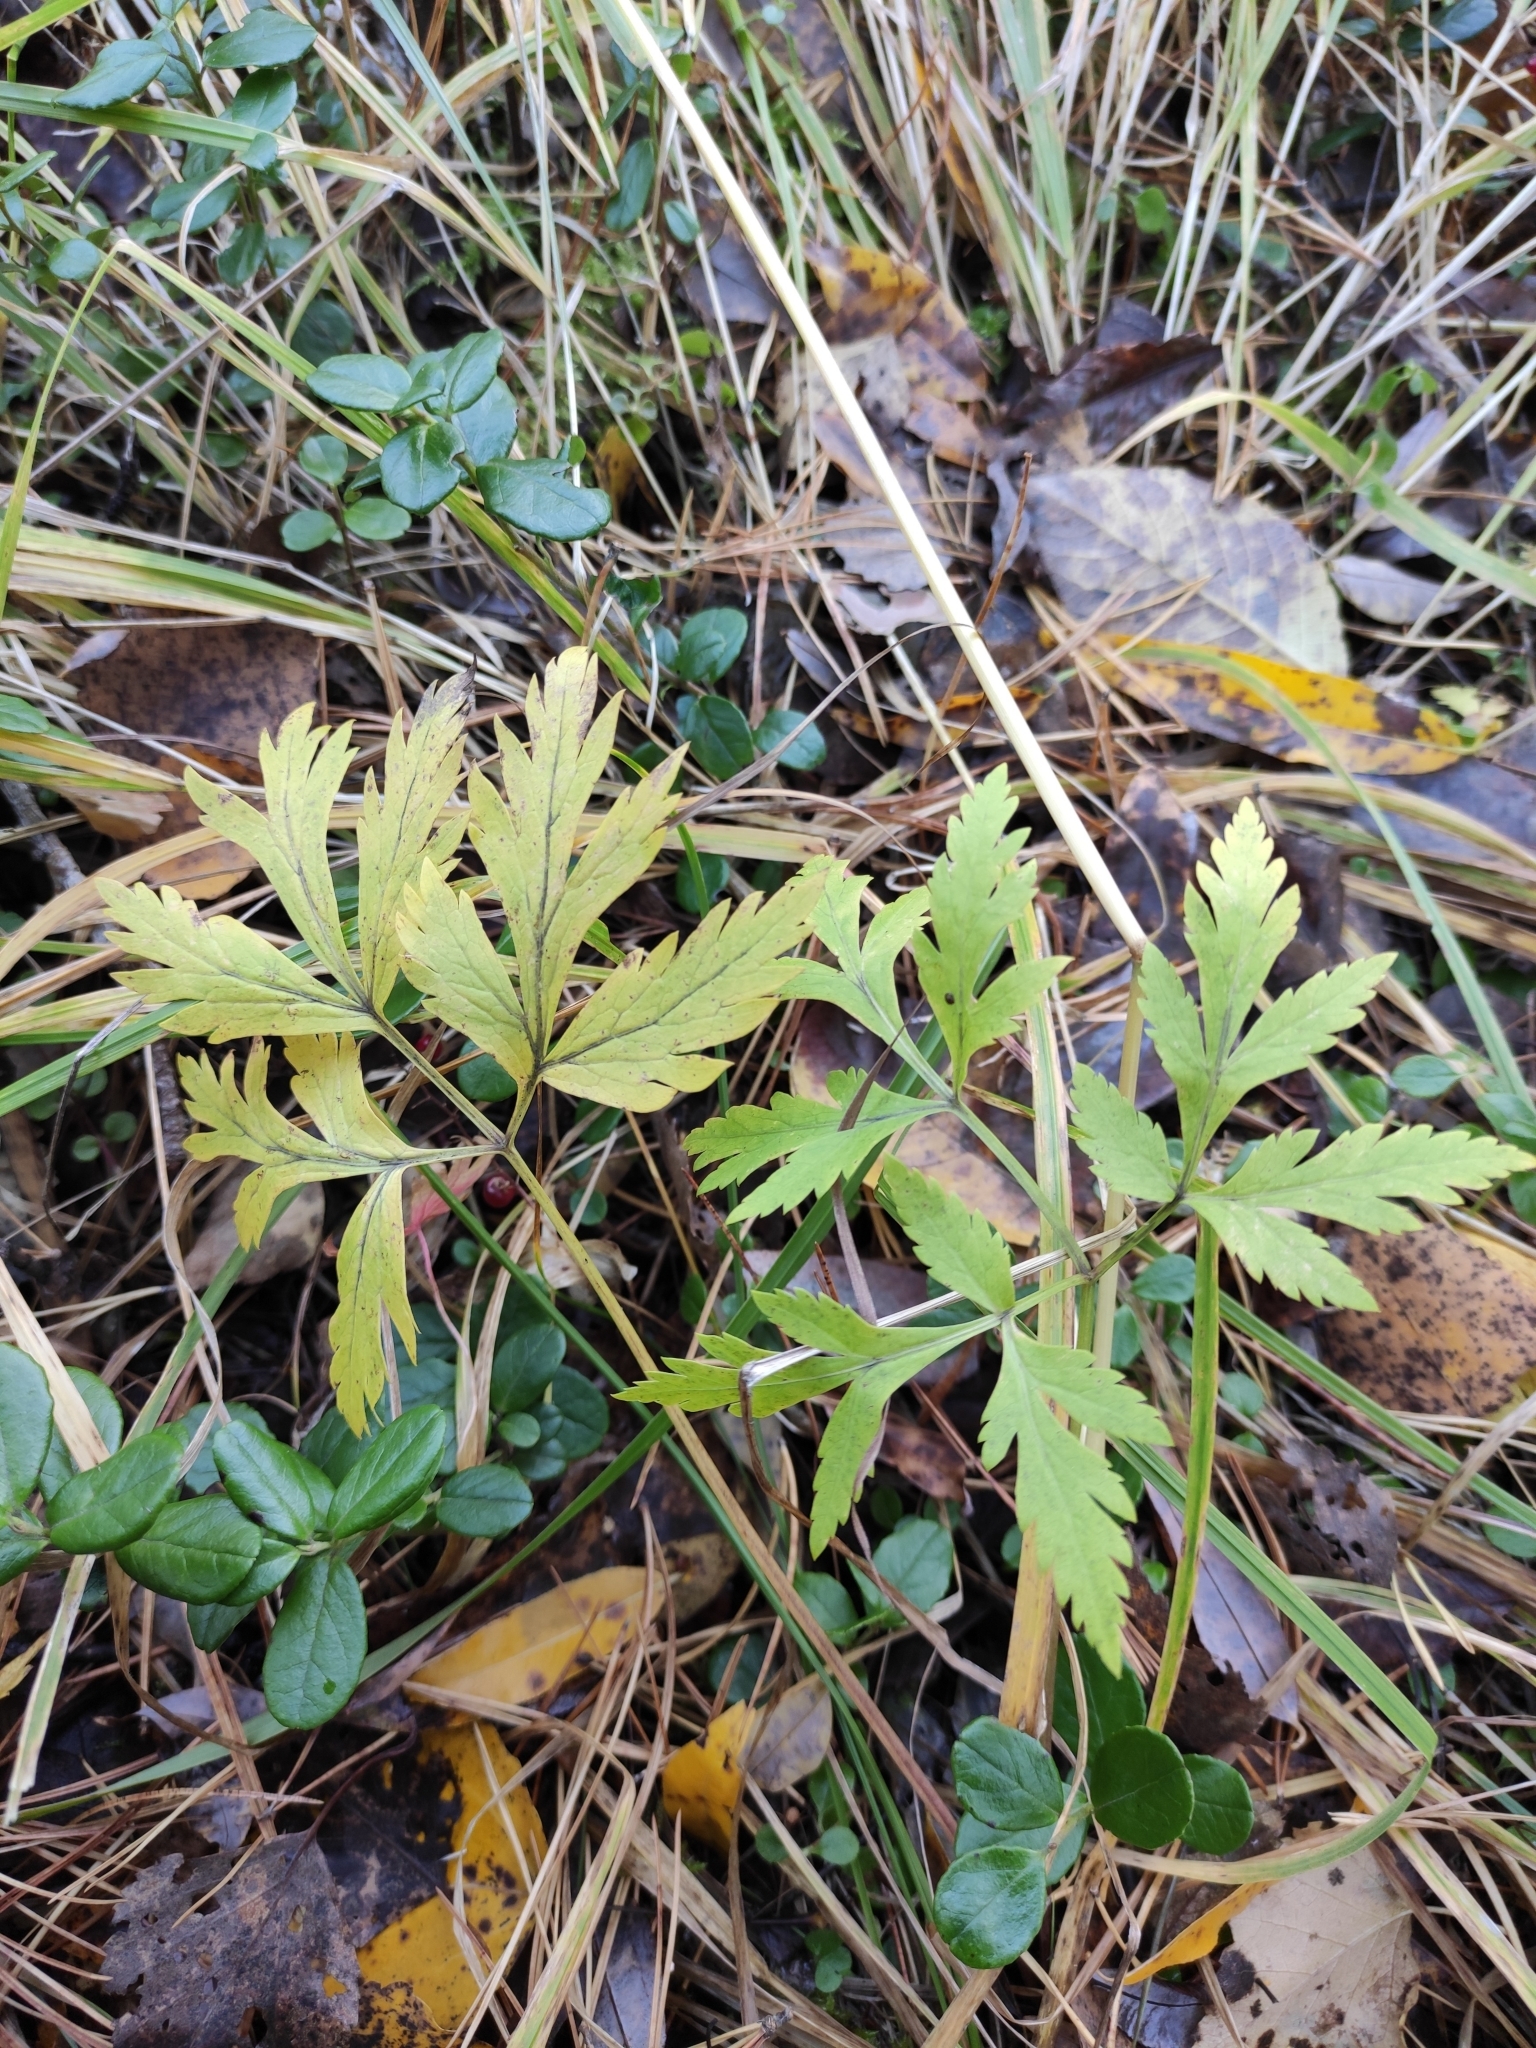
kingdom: Plantae
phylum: Tracheophyta
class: Magnoliopsida
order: Apiales
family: Apiaceae
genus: Pleurospermum
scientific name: Pleurospermum uralense
